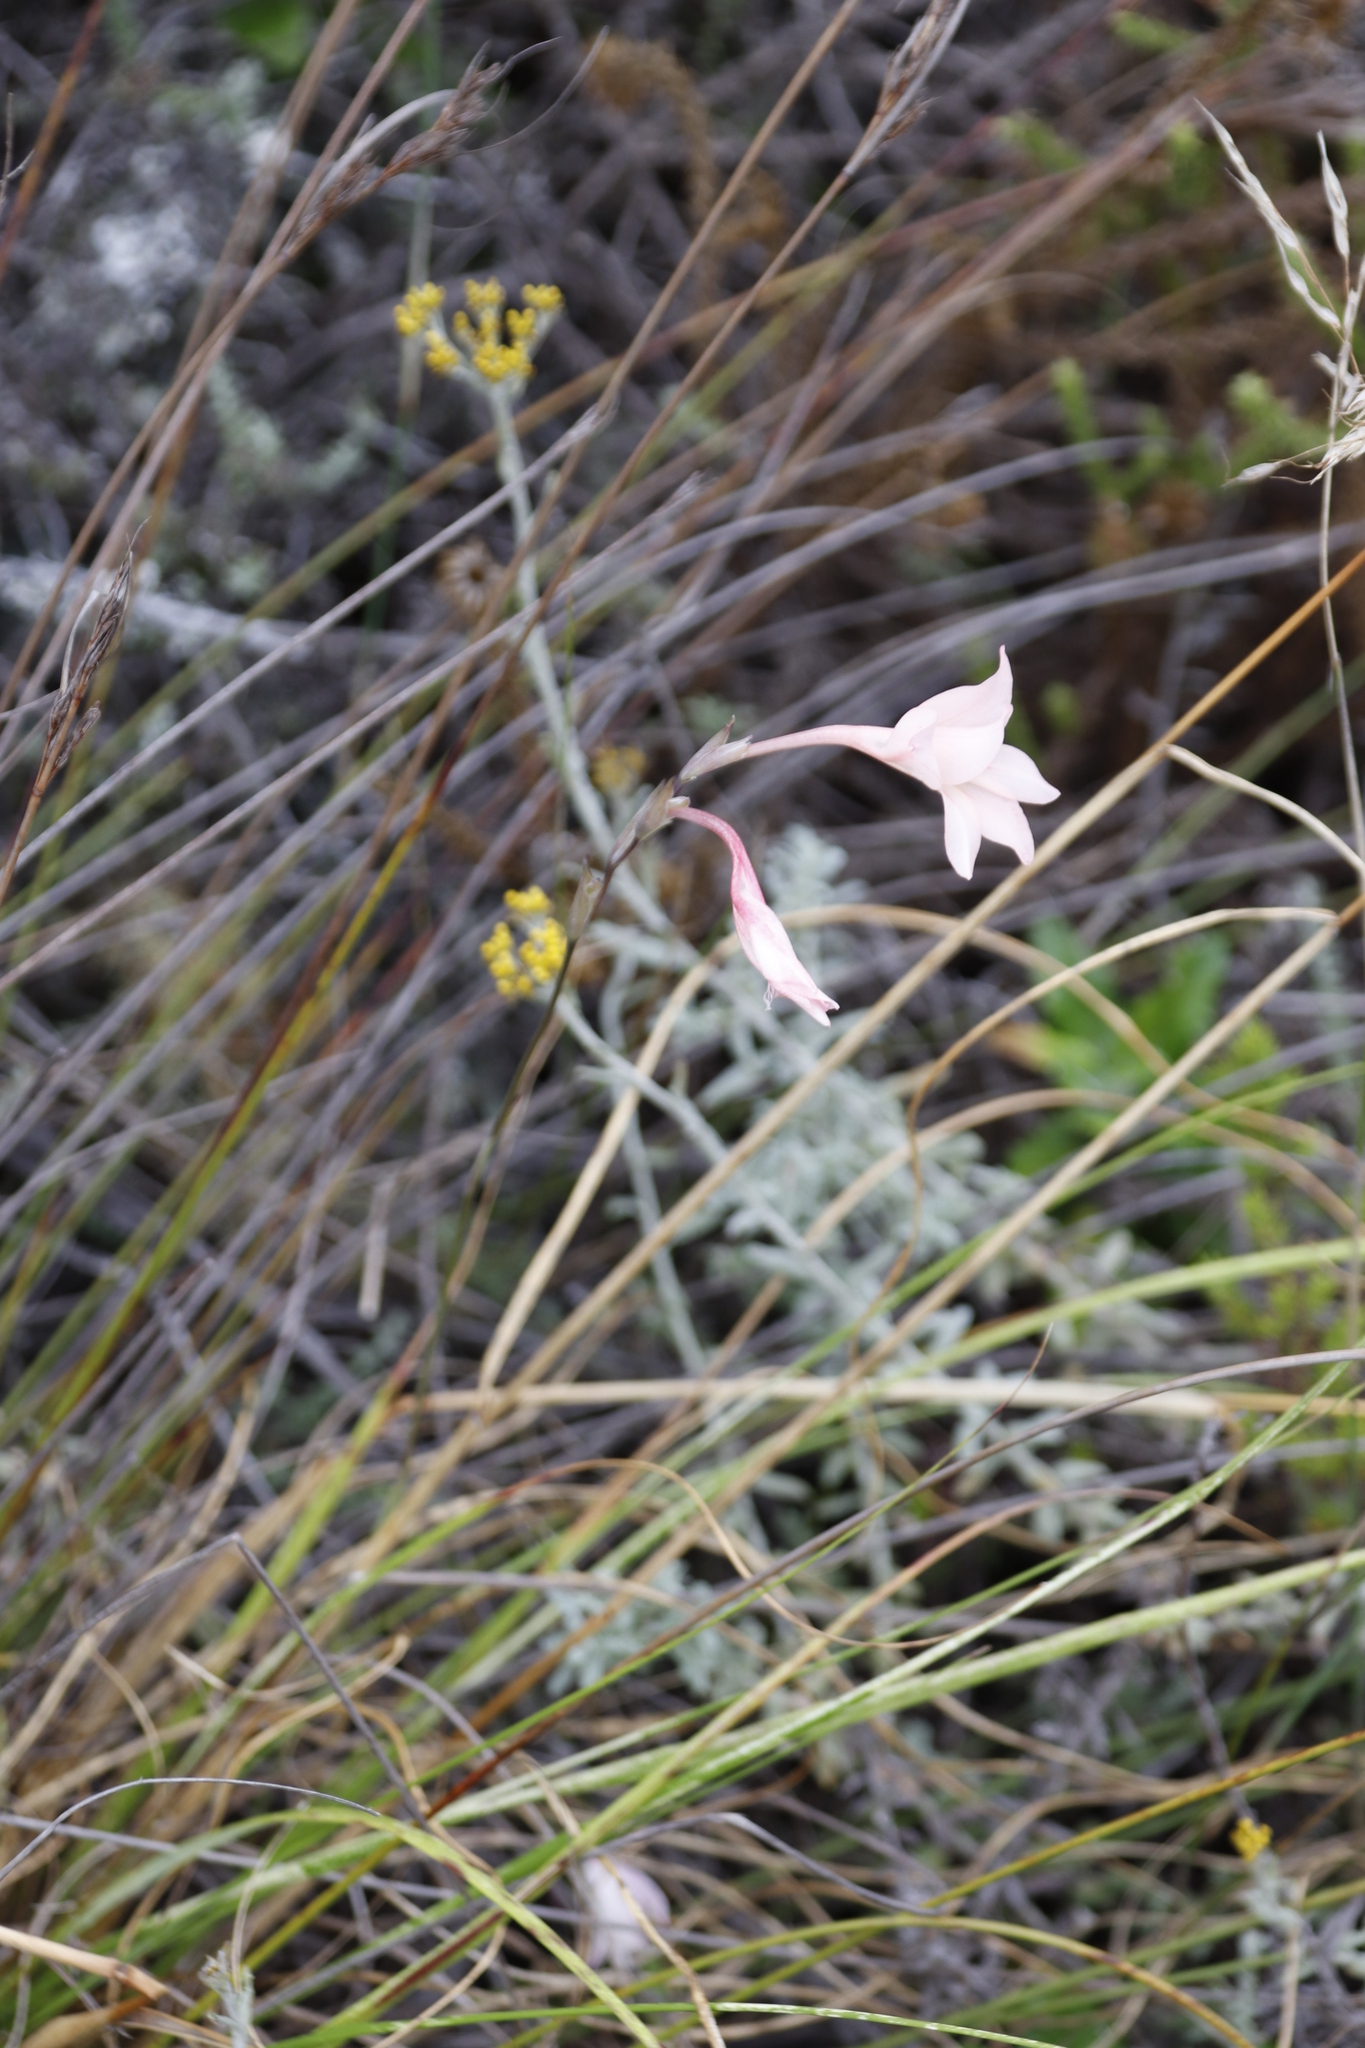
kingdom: Plantae
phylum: Tracheophyta
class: Liliopsida
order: Asparagales
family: Iridaceae
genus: Gladiolus
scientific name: Gladiolus monticola
